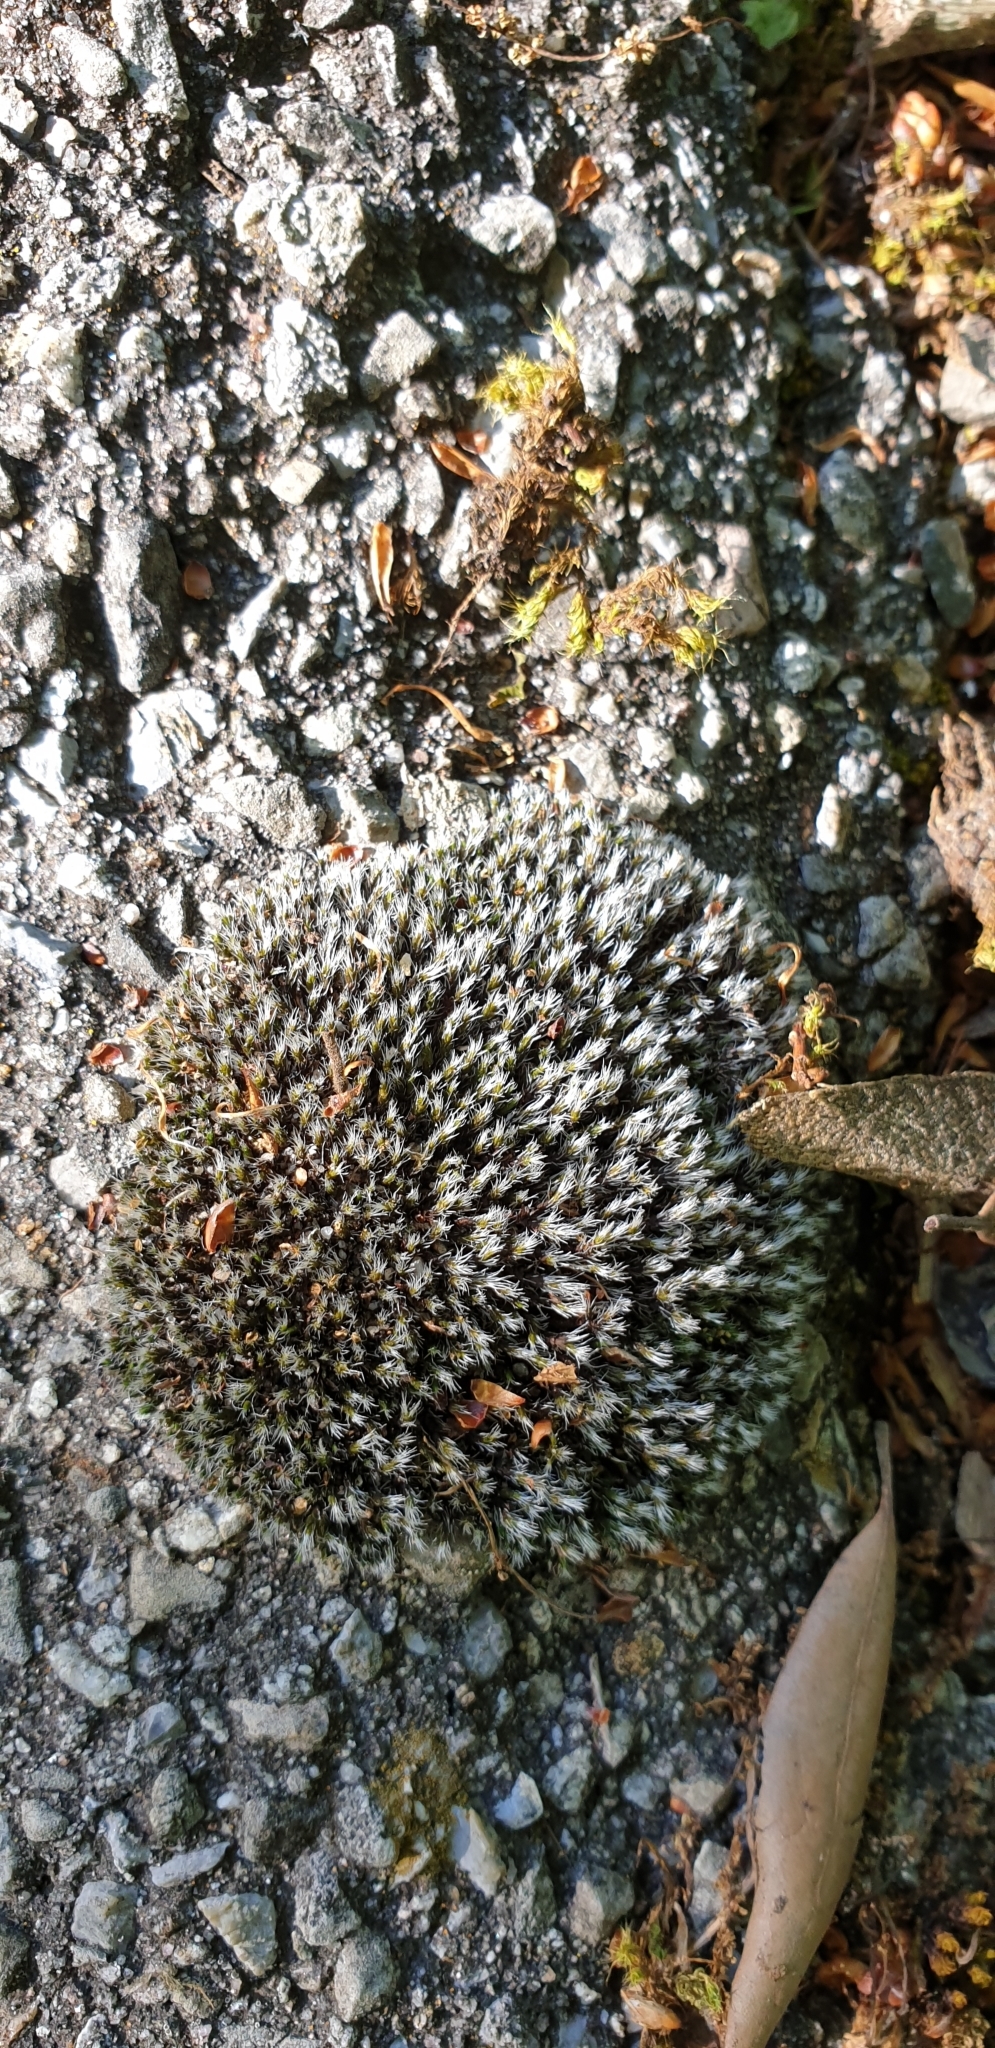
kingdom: Plantae
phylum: Bryophyta
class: Bryopsida
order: Grimmiales
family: Grimmiaceae
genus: Grimmia
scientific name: Grimmia laevigata
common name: Hoary grimmia
